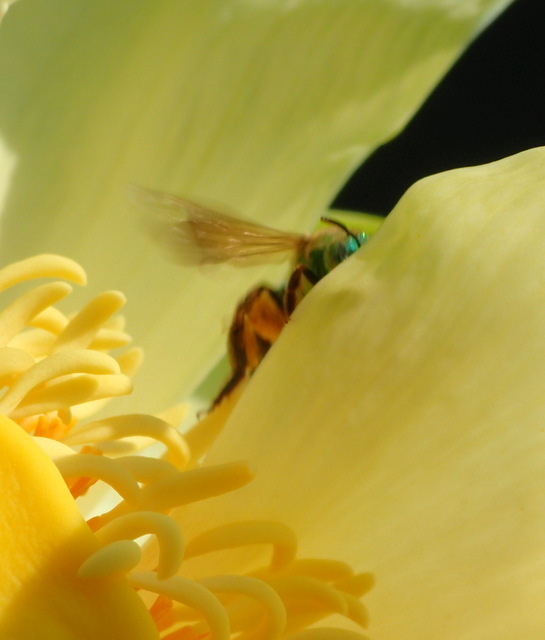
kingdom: Animalia
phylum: Arthropoda
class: Insecta
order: Hymenoptera
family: Halictidae
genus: Agapostemon
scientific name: Agapostemon splendens
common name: Brown-winged striped sweat bee
